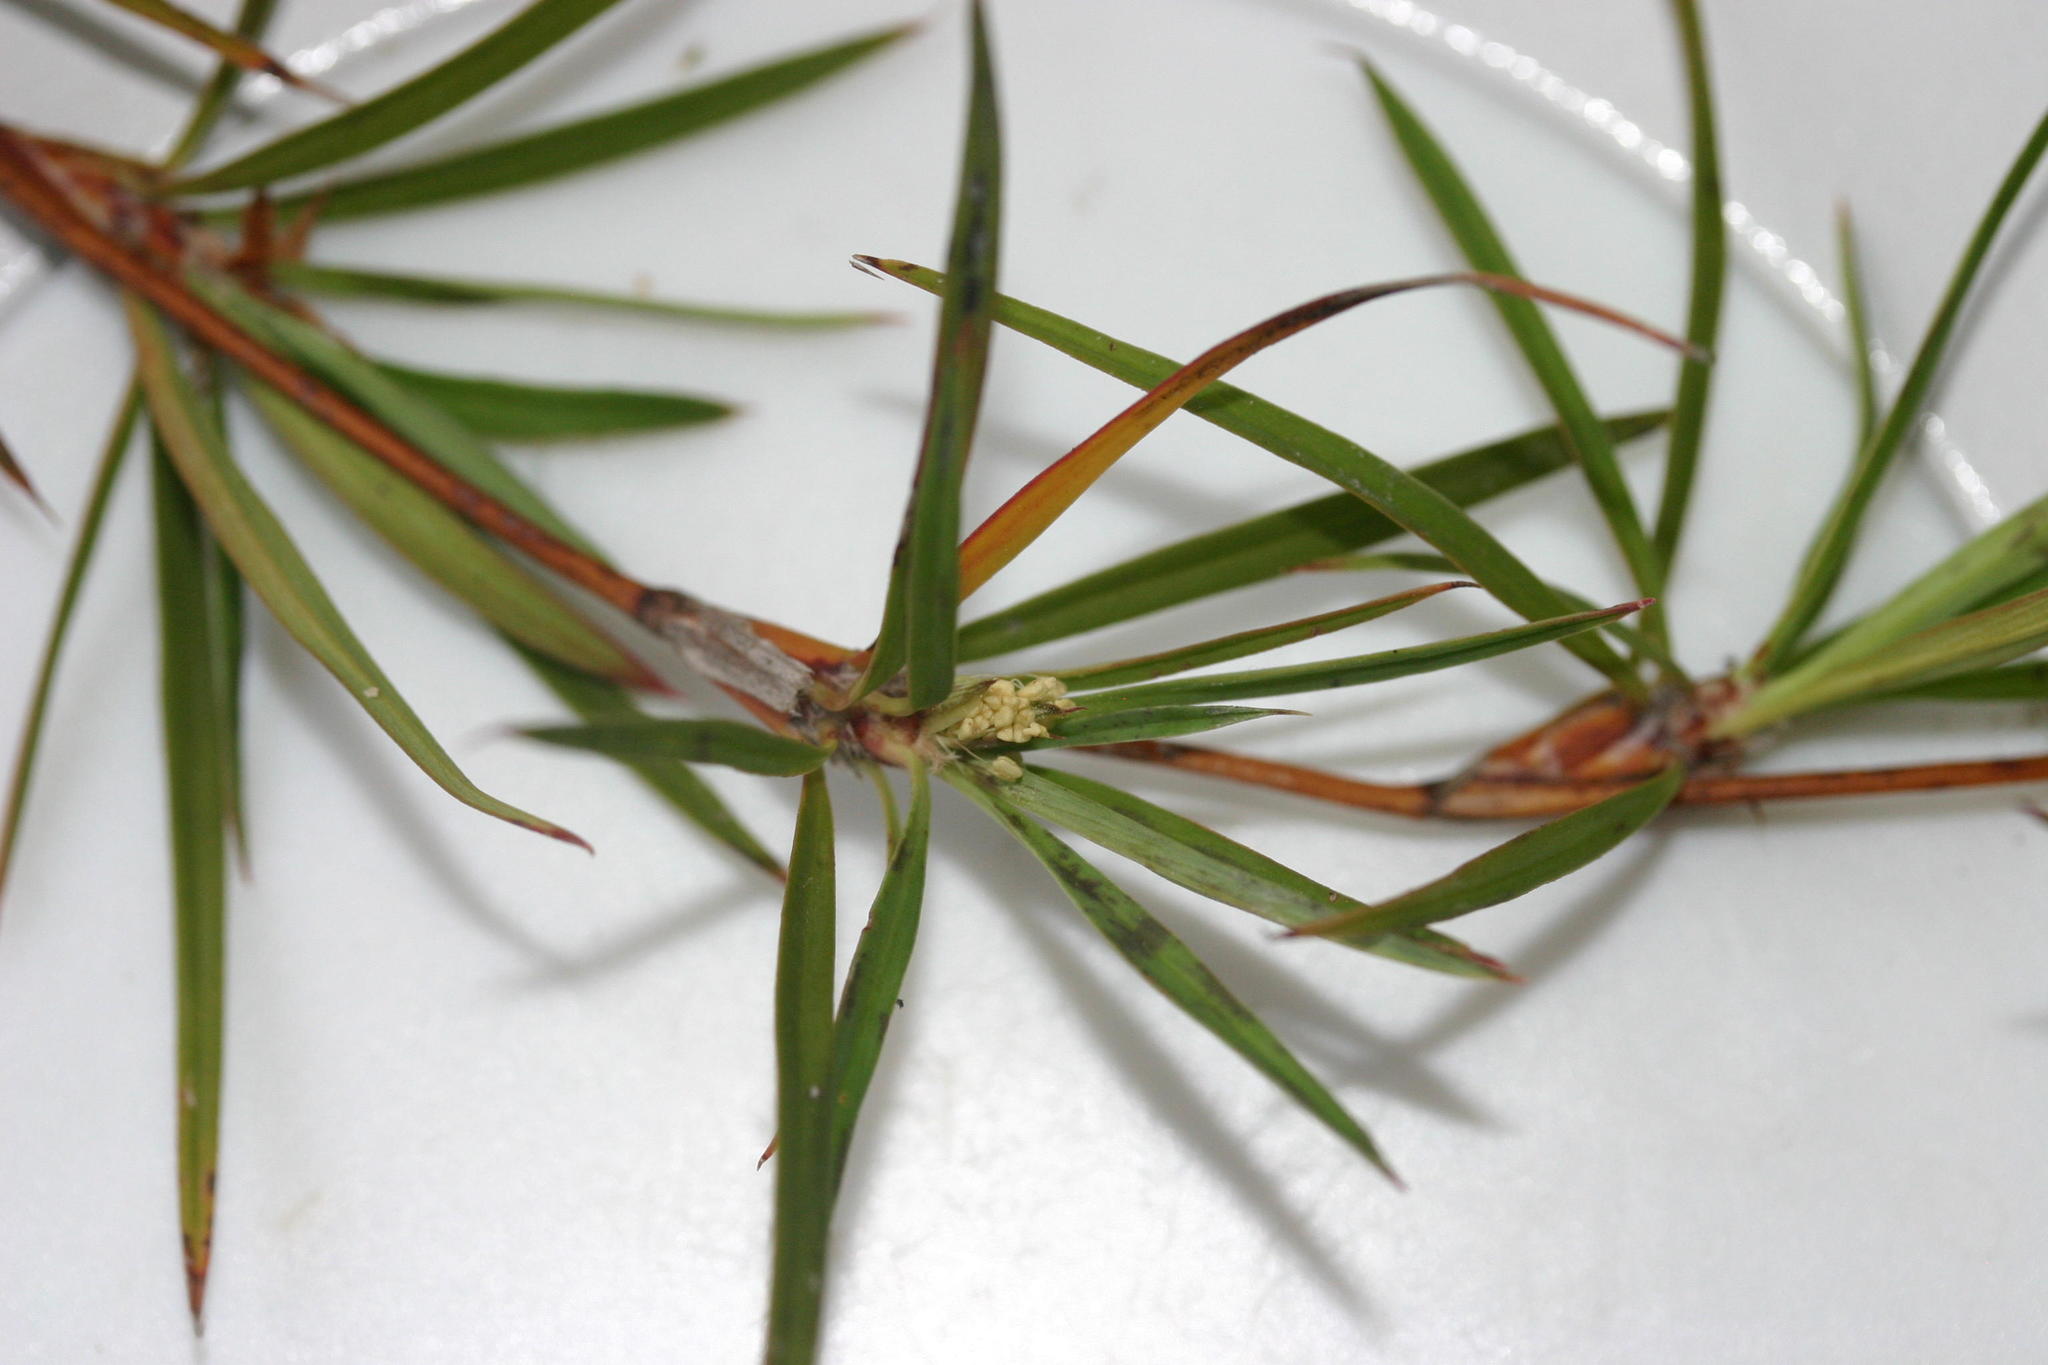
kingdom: Plantae
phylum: Tracheophyta
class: Magnoliopsida
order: Rosales
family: Rosaceae
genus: Cliffortia
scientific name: Cliffortia strobilifera
